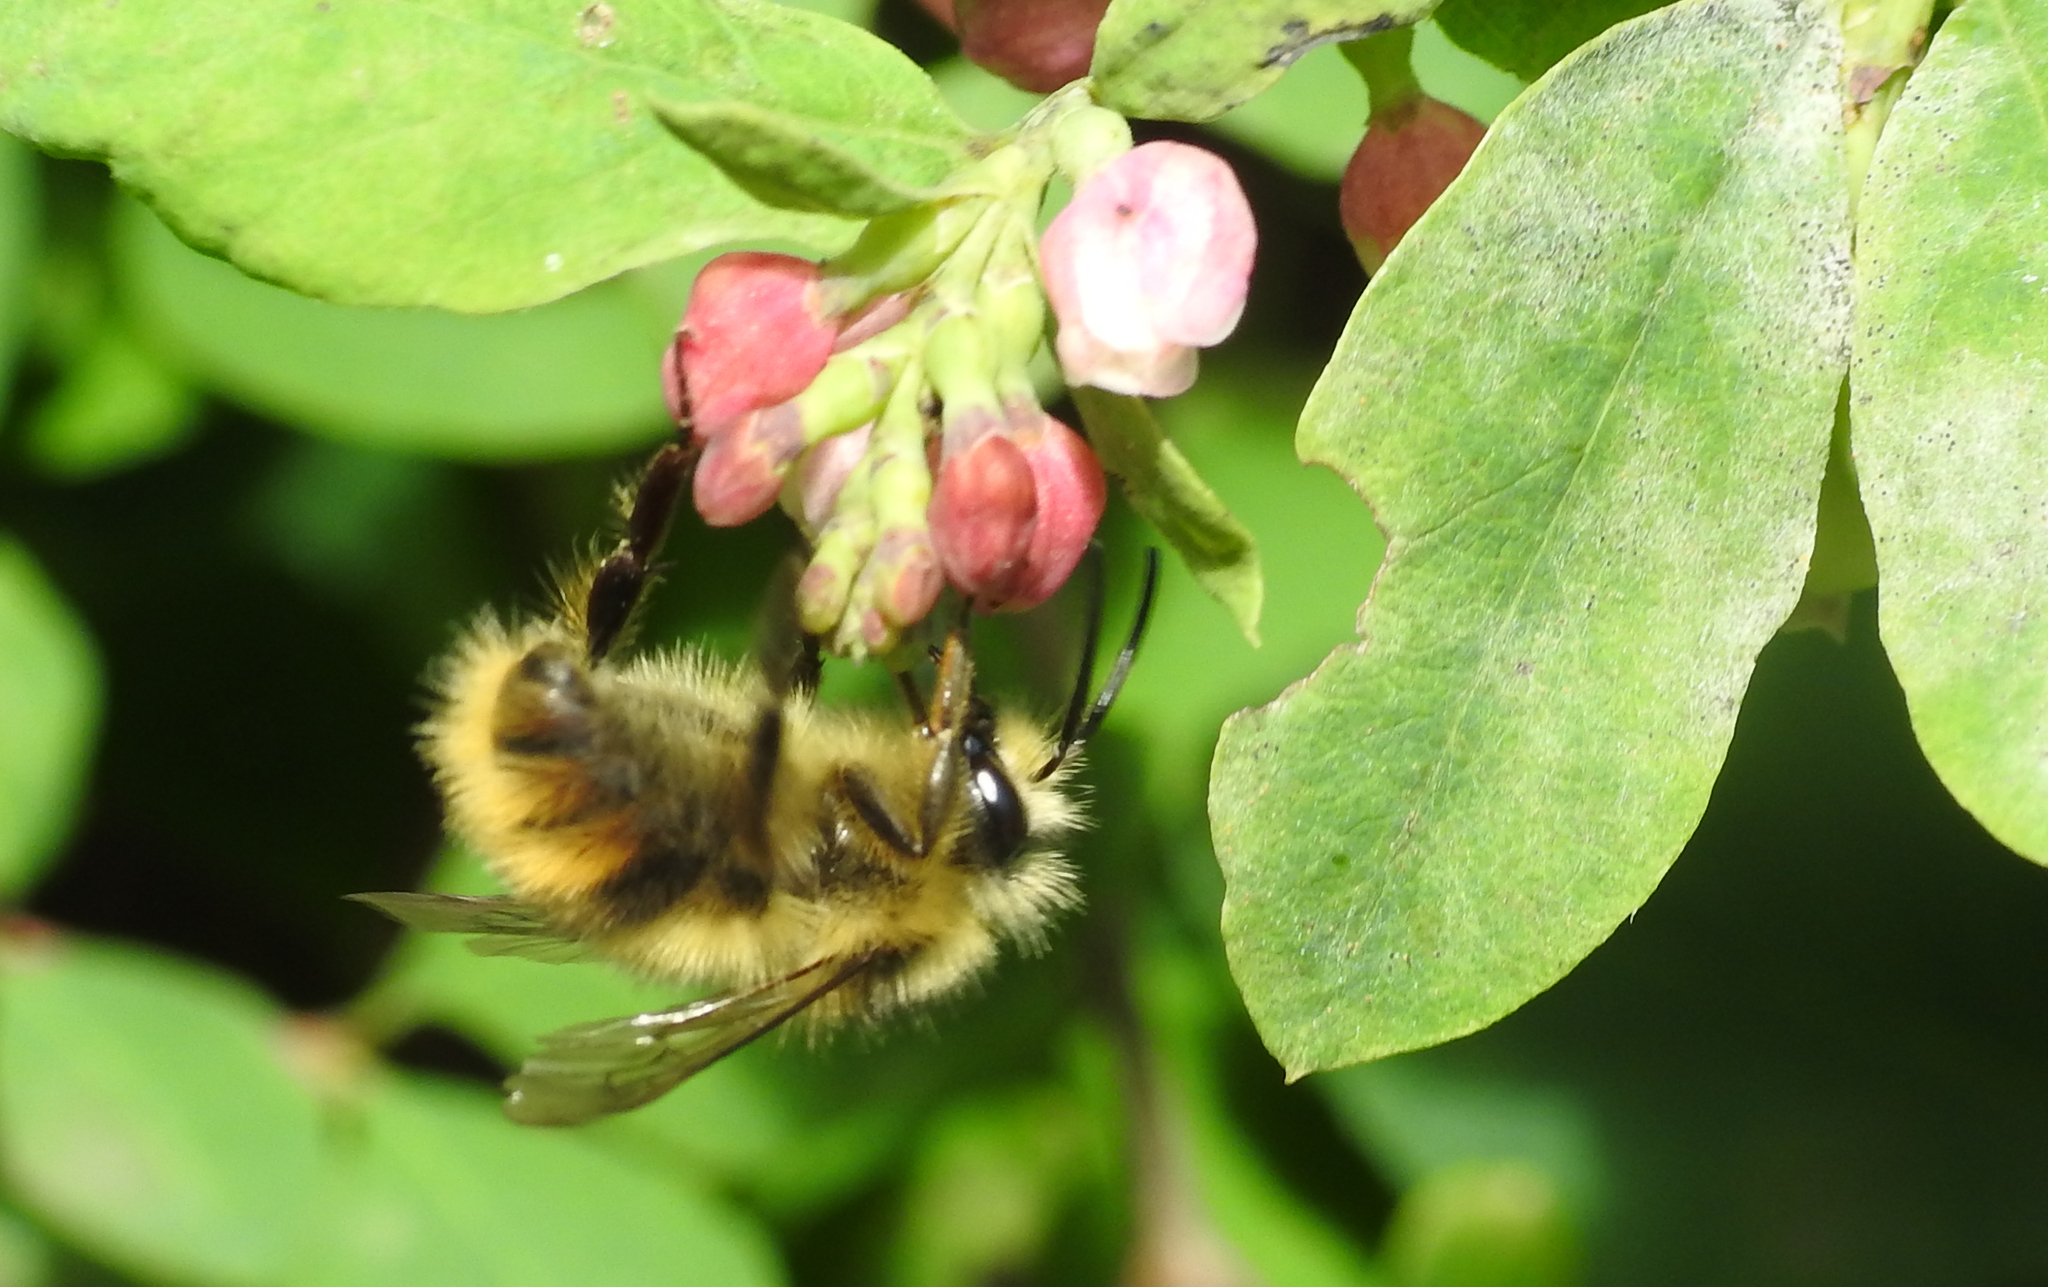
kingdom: Animalia
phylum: Arthropoda
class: Insecta
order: Hymenoptera
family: Apidae
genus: Bombus
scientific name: Bombus mixtus
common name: Fuzzy-horned bumble bee
